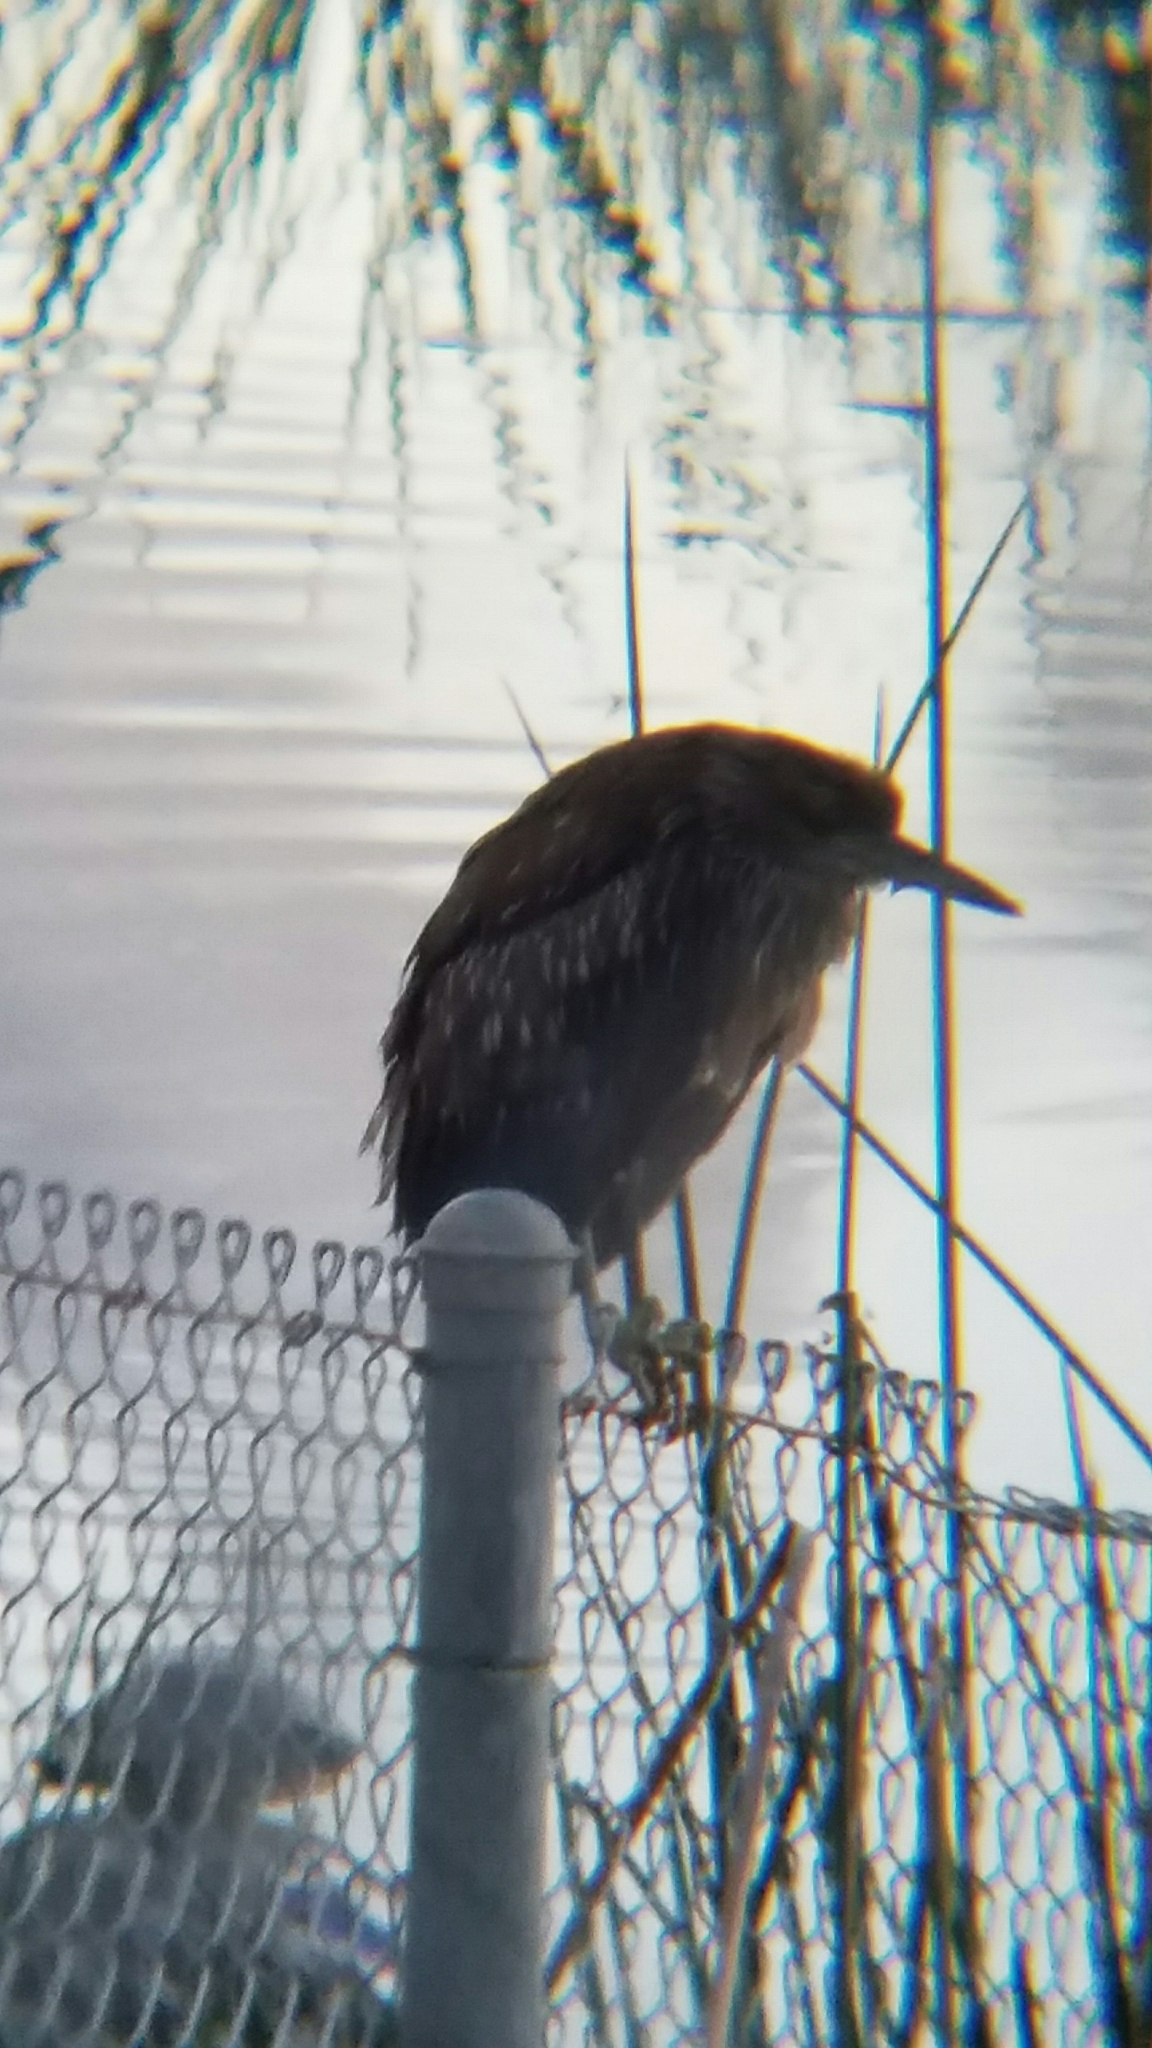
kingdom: Animalia
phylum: Chordata
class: Aves
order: Pelecaniformes
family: Ardeidae
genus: Nycticorax
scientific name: Nycticorax nycticorax
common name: Black-crowned night heron
